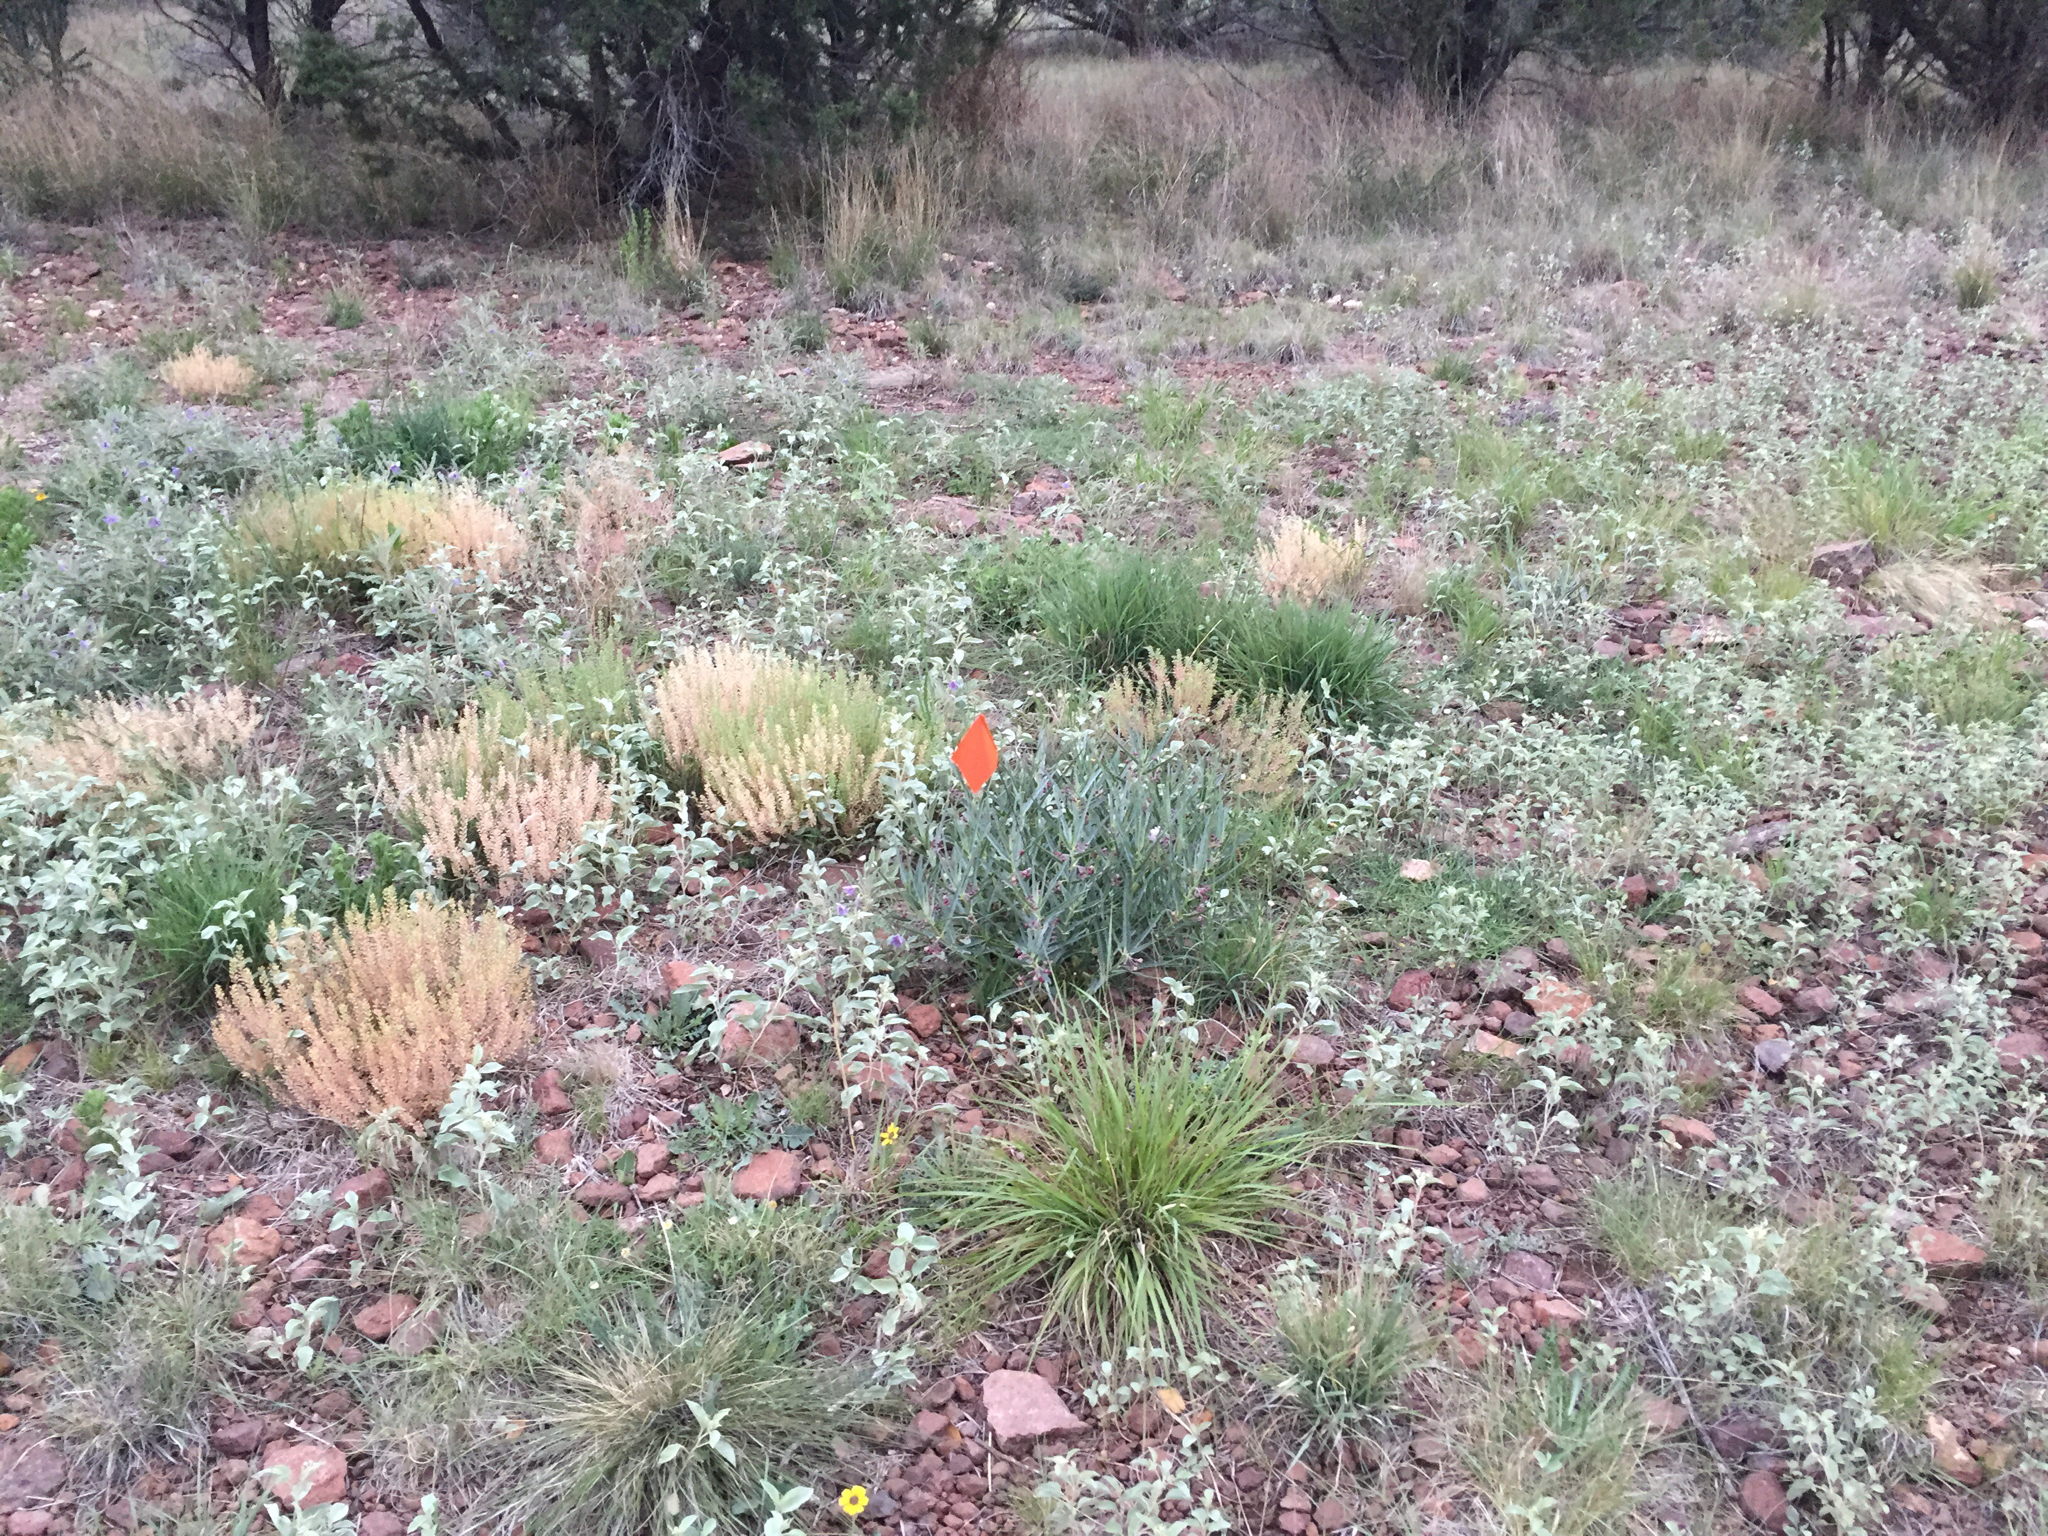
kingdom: Plantae
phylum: Tracheophyta
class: Magnoliopsida
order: Gentianales
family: Apocynaceae
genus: Asclepias
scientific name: Asclepias brachystephana
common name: Shortcrown milkweed
